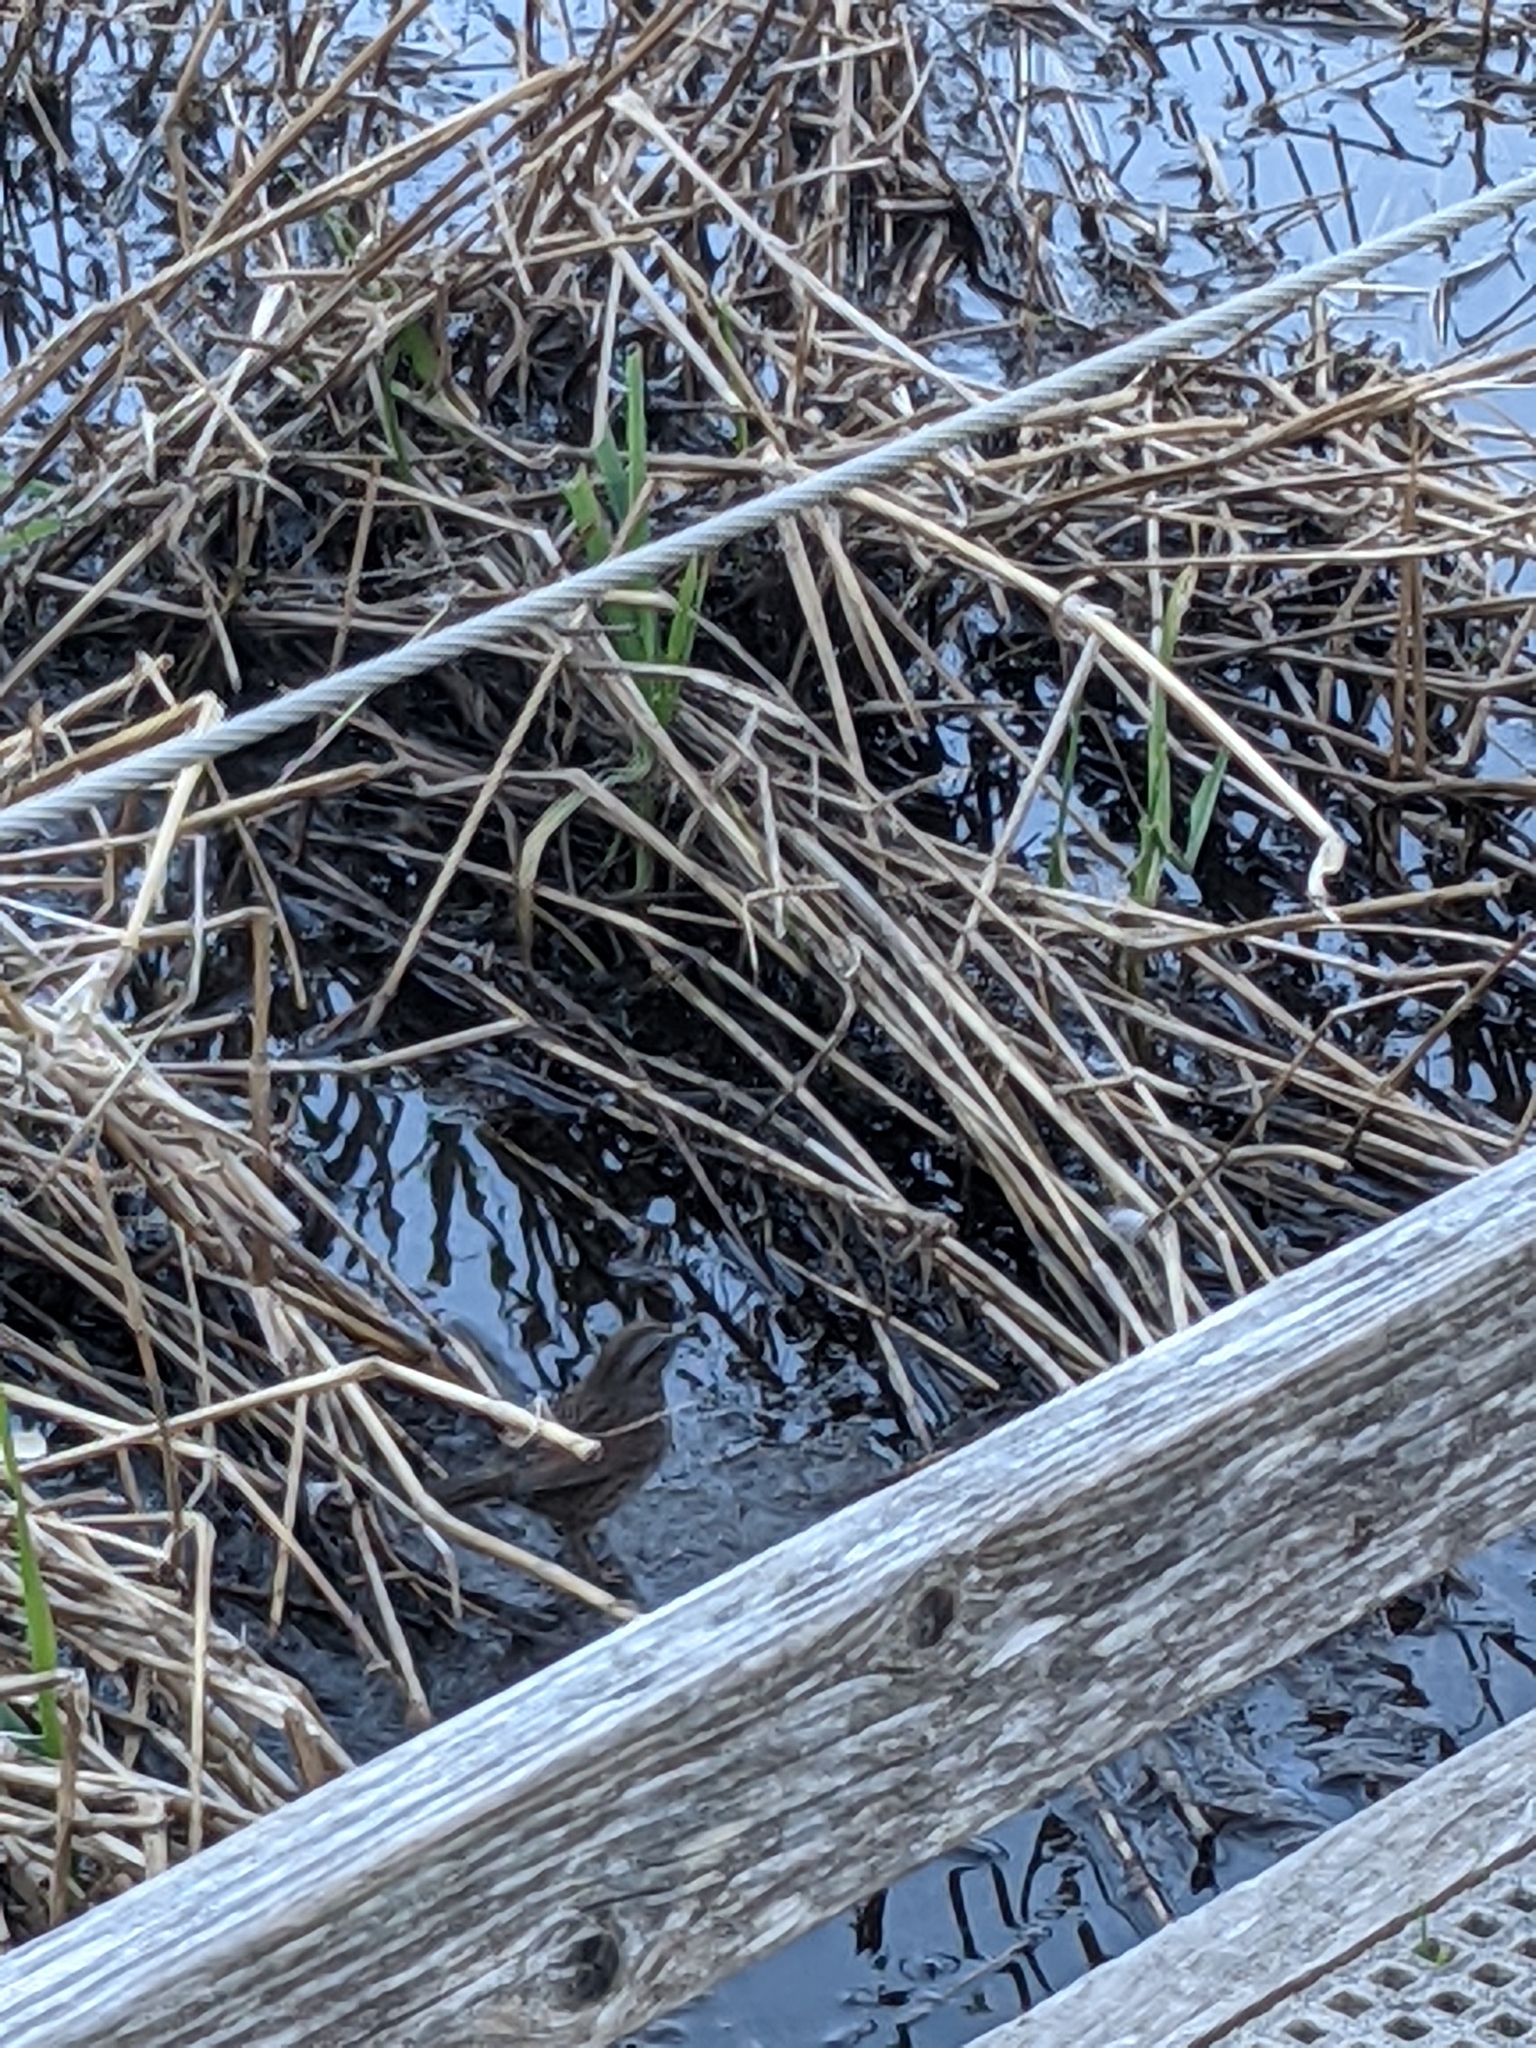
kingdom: Animalia
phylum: Chordata
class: Aves
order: Passeriformes
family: Passerellidae
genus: Melospiza
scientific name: Melospiza melodia
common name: Song sparrow
